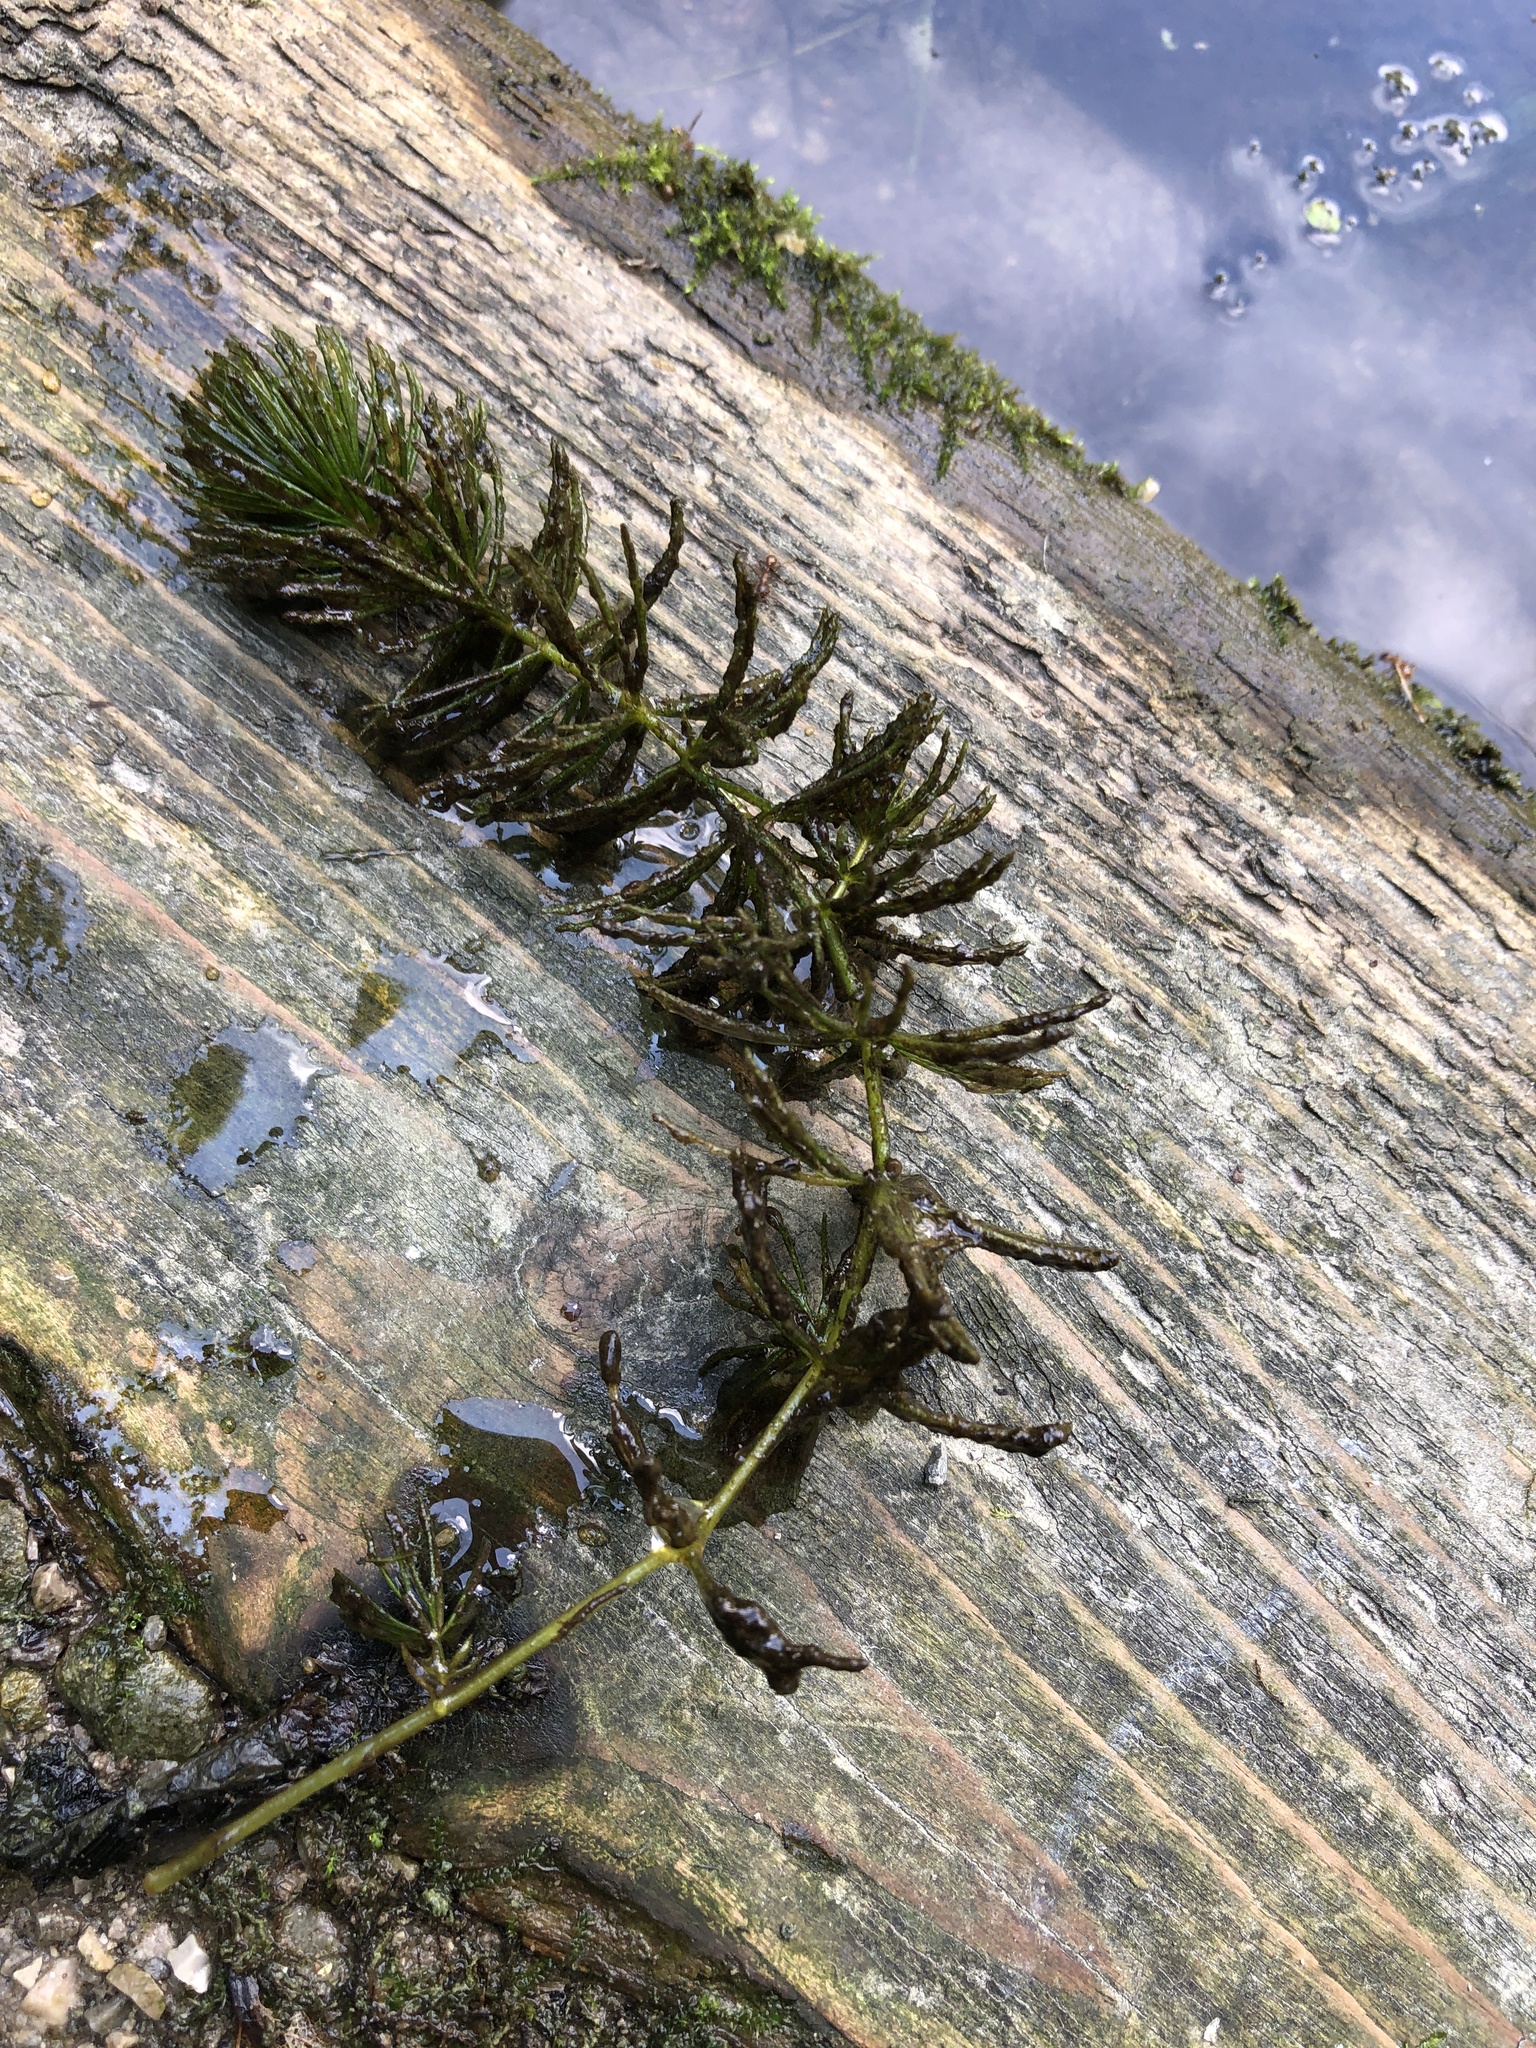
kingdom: Plantae
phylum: Tracheophyta
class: Magnoliopsida
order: Ceratophyllales
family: Ceratophyllaceae
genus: Ceratophyllum
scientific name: Ceratophyllum demersum
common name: Rigid hornwort
